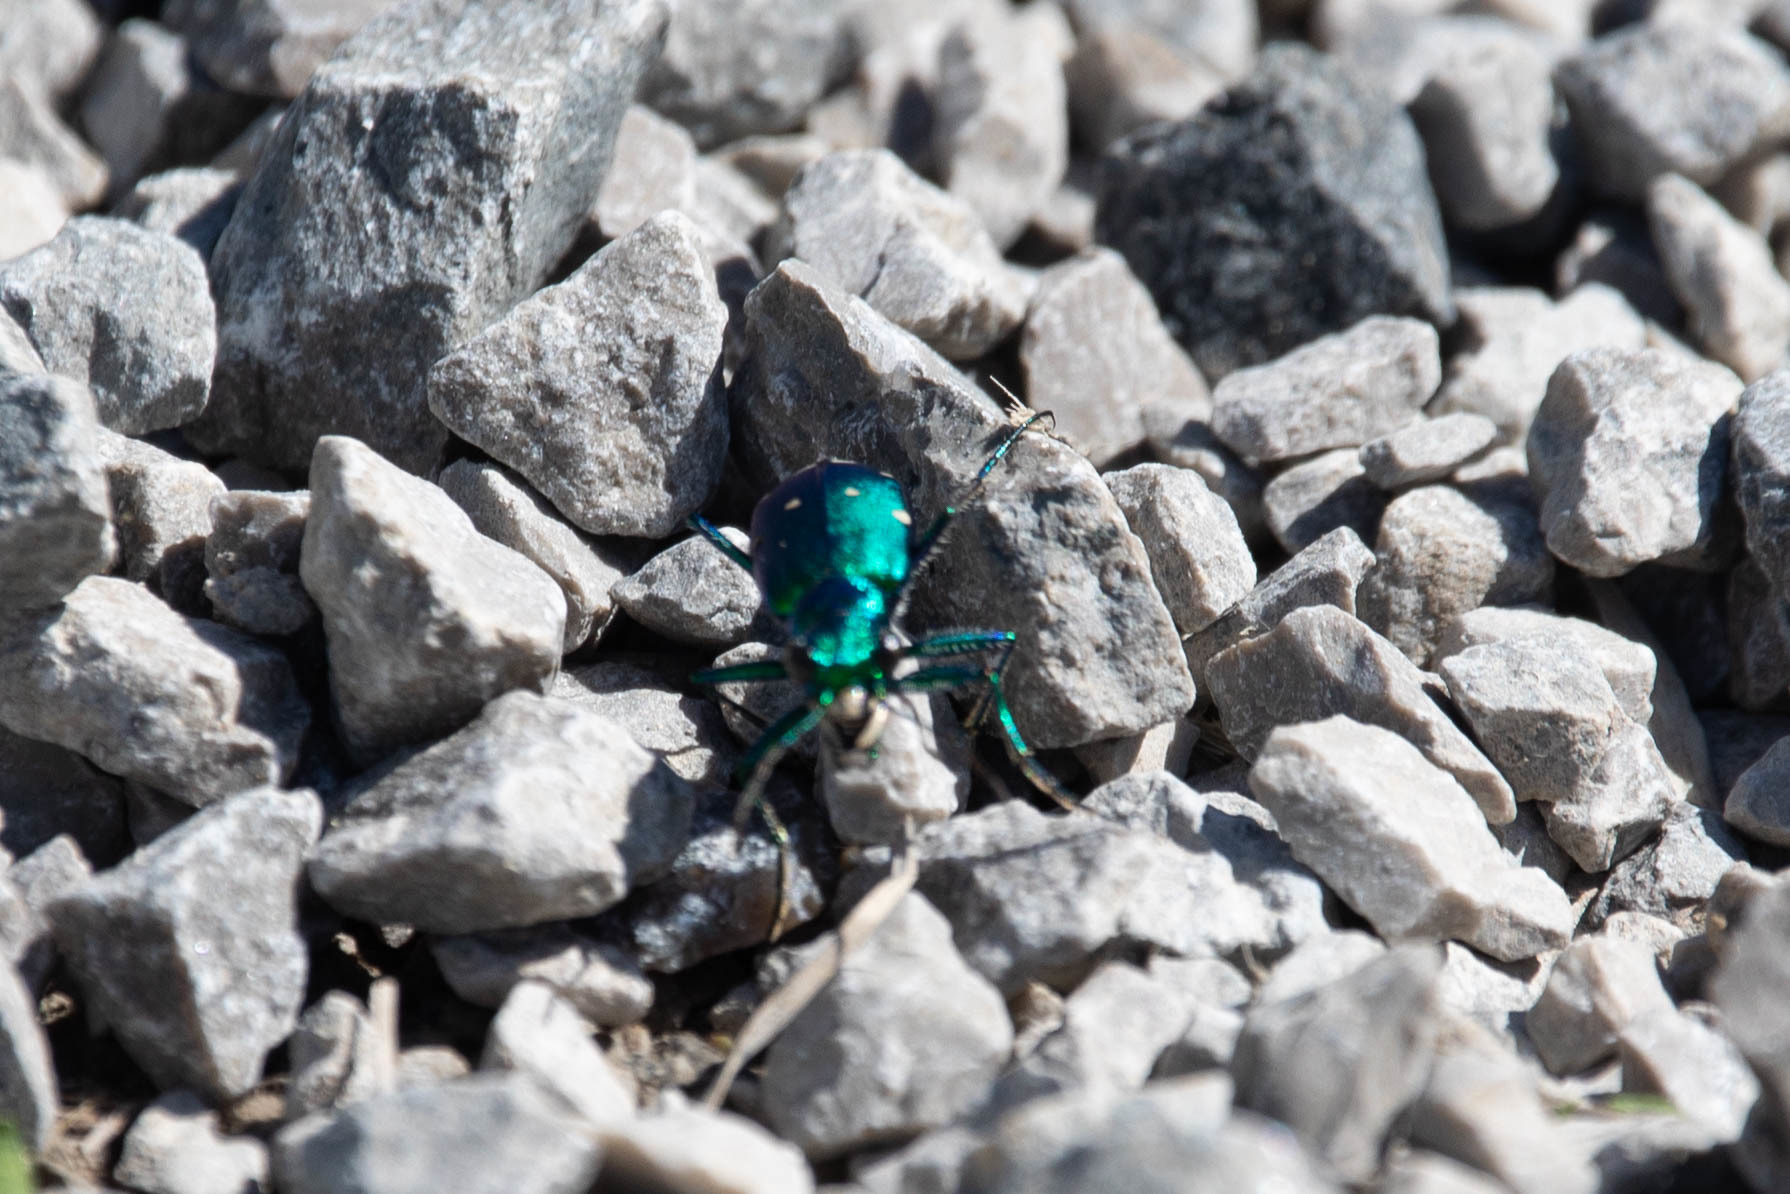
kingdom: Animalia
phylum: Arthropoda
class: Insecta
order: Coleoptera
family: Carabidae
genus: Cicindela
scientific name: Cicindela sexguttata
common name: Six-spotted tiger beetle
